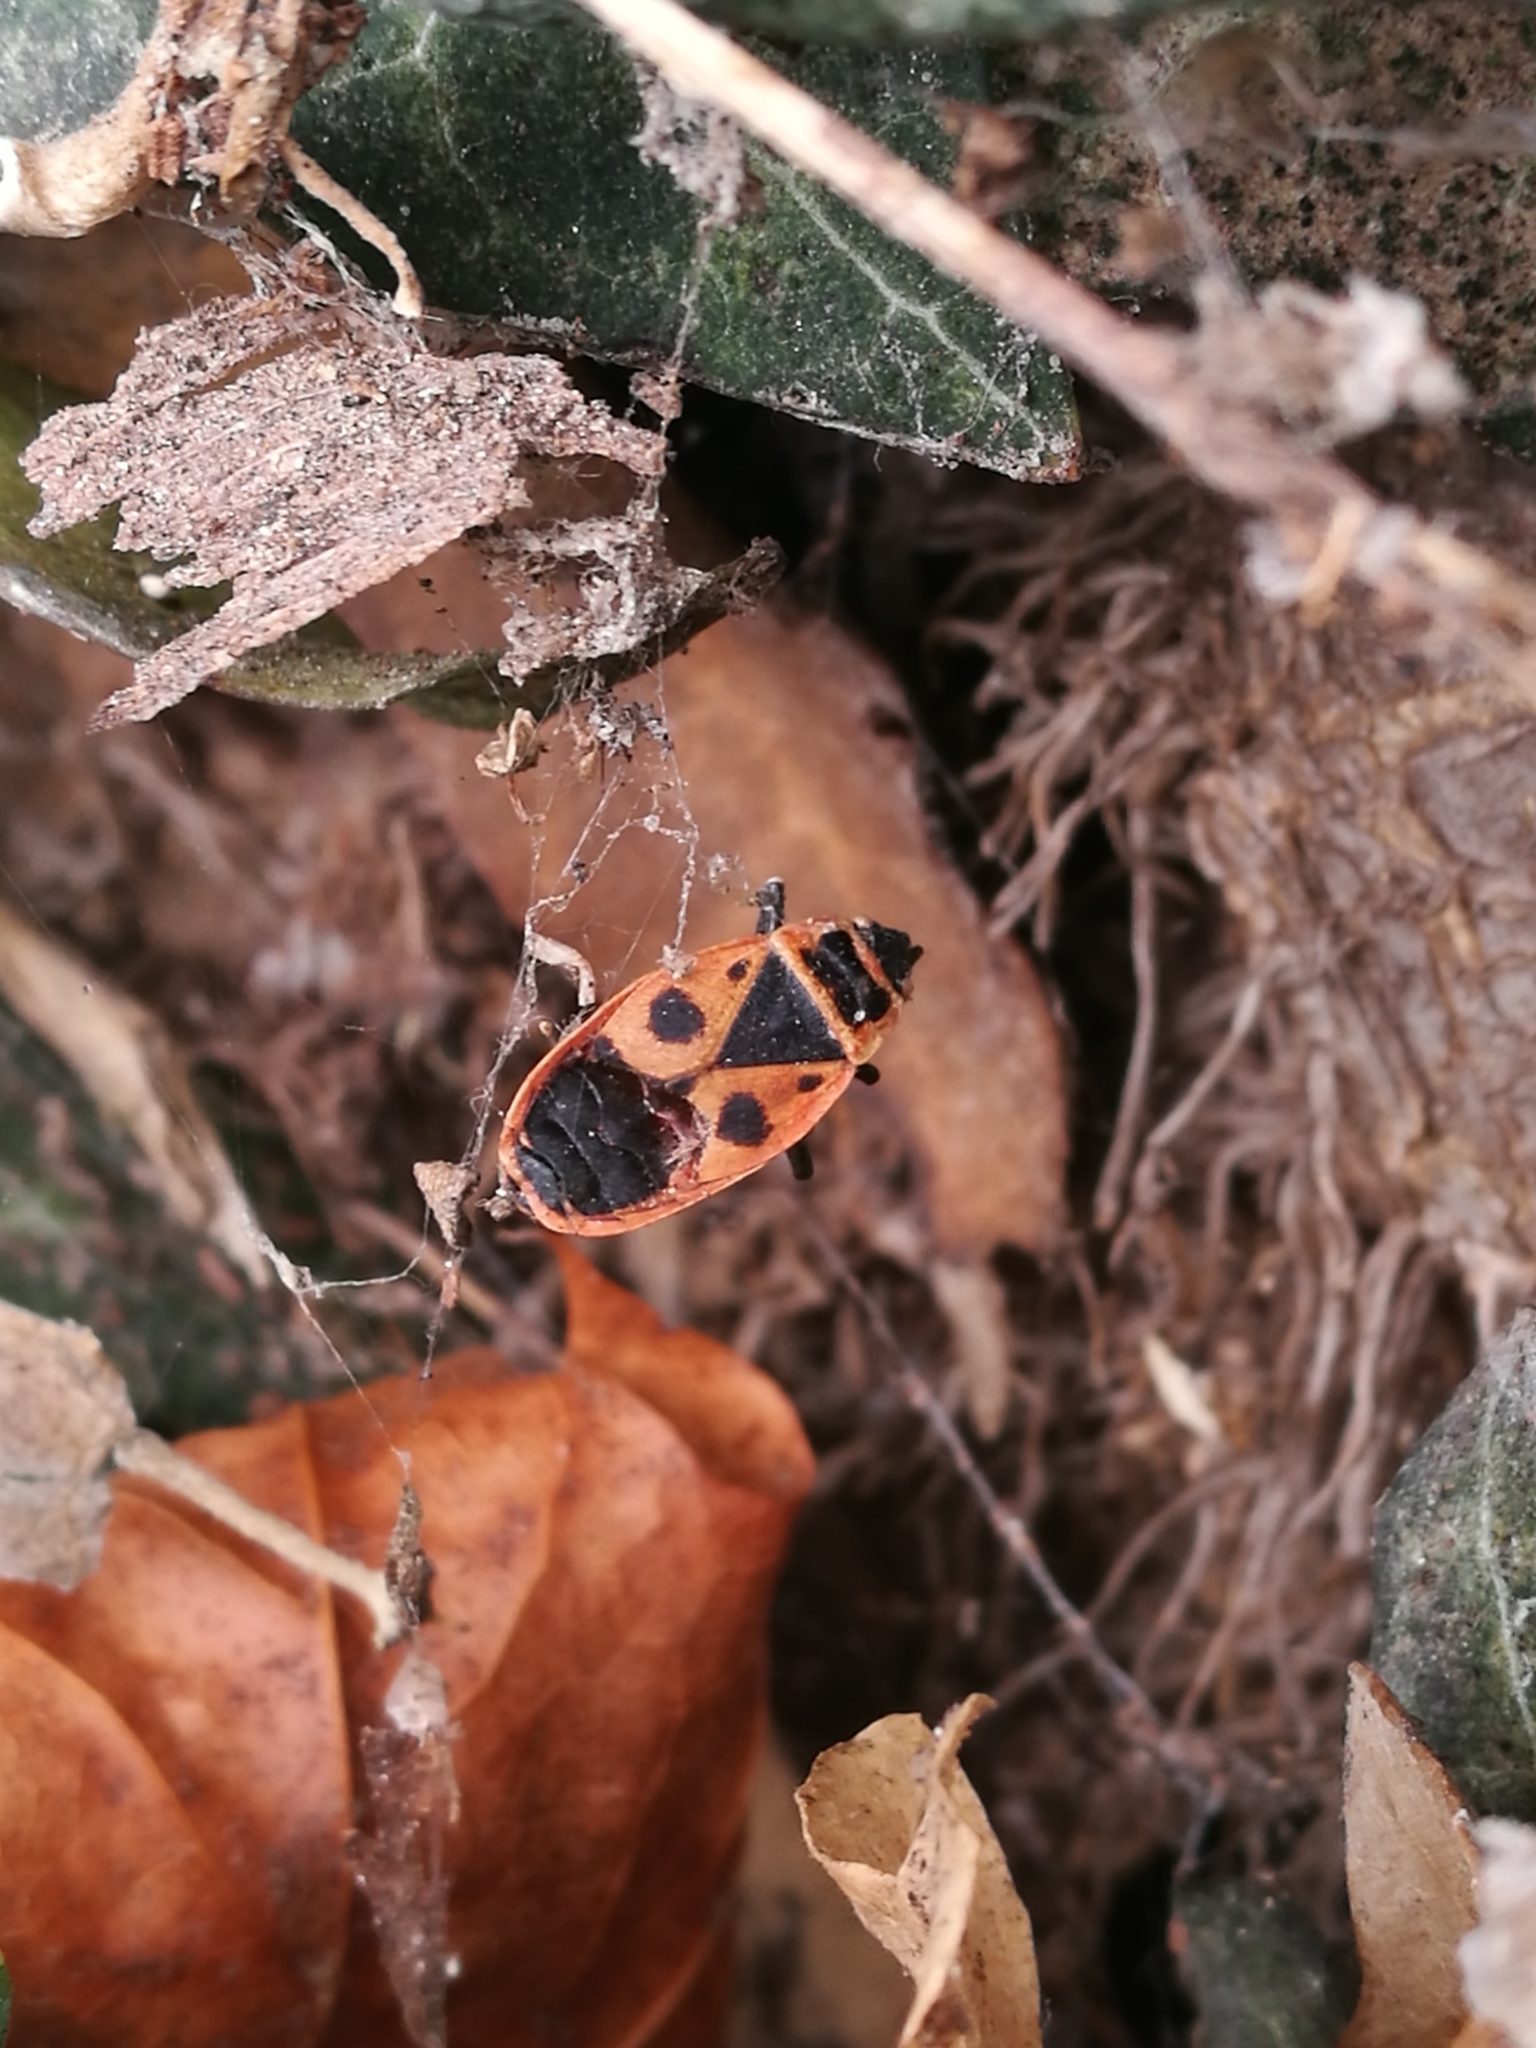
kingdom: Animalia
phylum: Arthropoda
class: Insecta
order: Hemiptera
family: Pyrrhocoridae
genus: Pyrrhocoris
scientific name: Pyrrhocoris apterus
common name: Firebug
